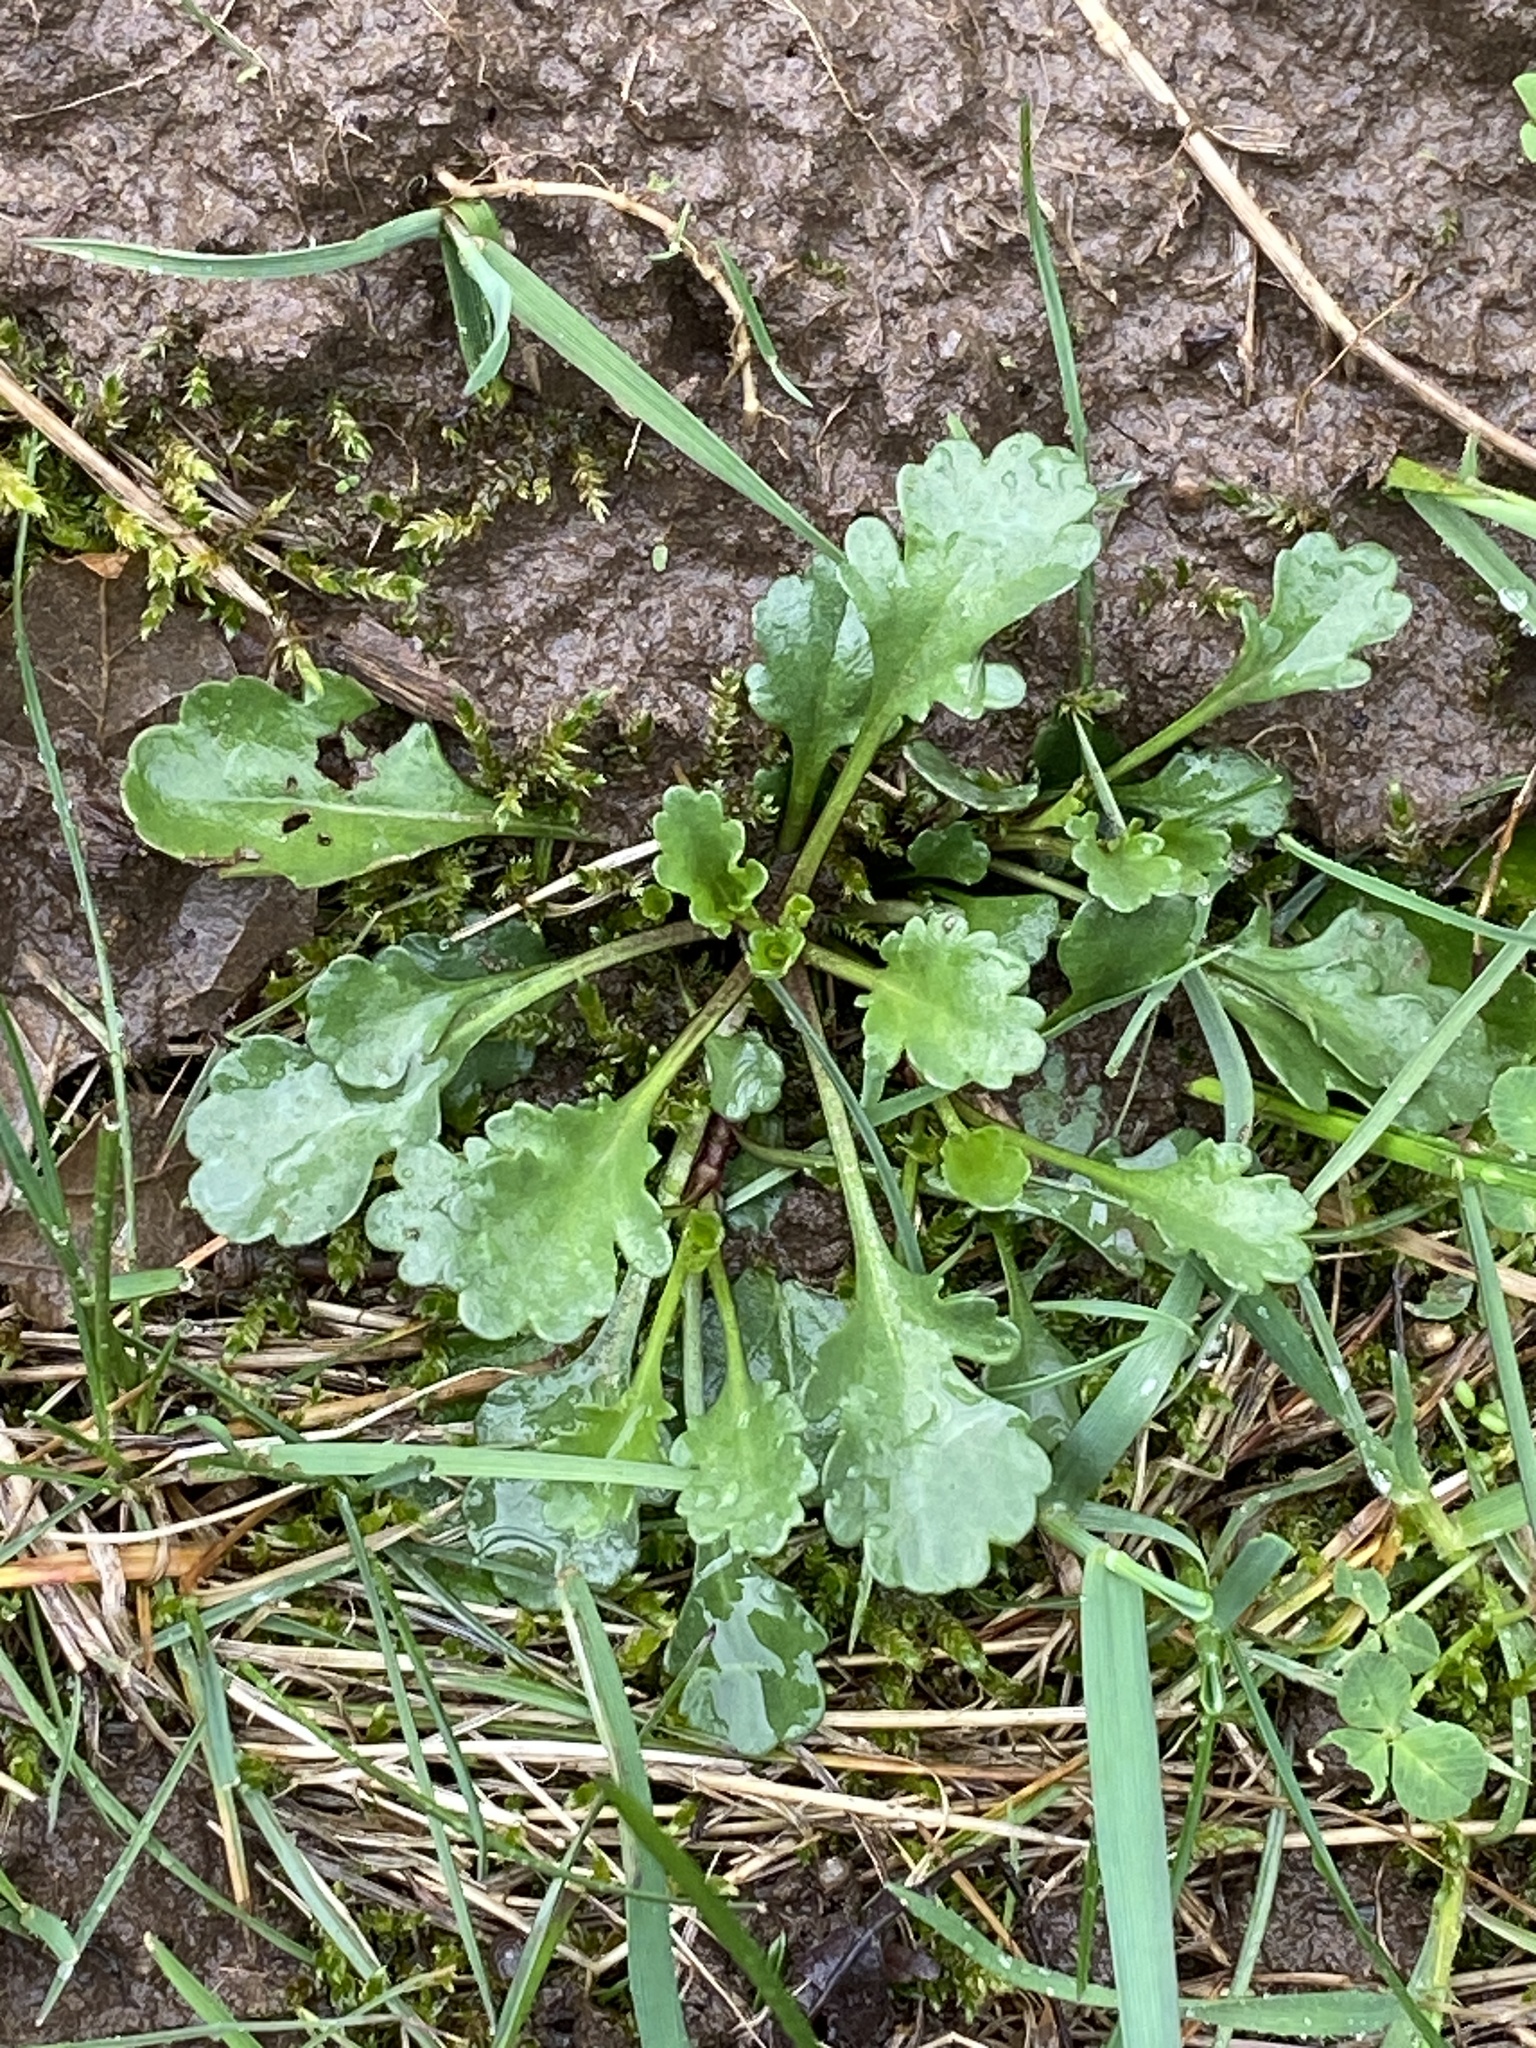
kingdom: Plantae
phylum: Tracheophyta
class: Magnoliopsida
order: Asterales
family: Asteraceae
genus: Leucanthemum
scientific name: Leucanthemum vulgare
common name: Oxeye daisy
